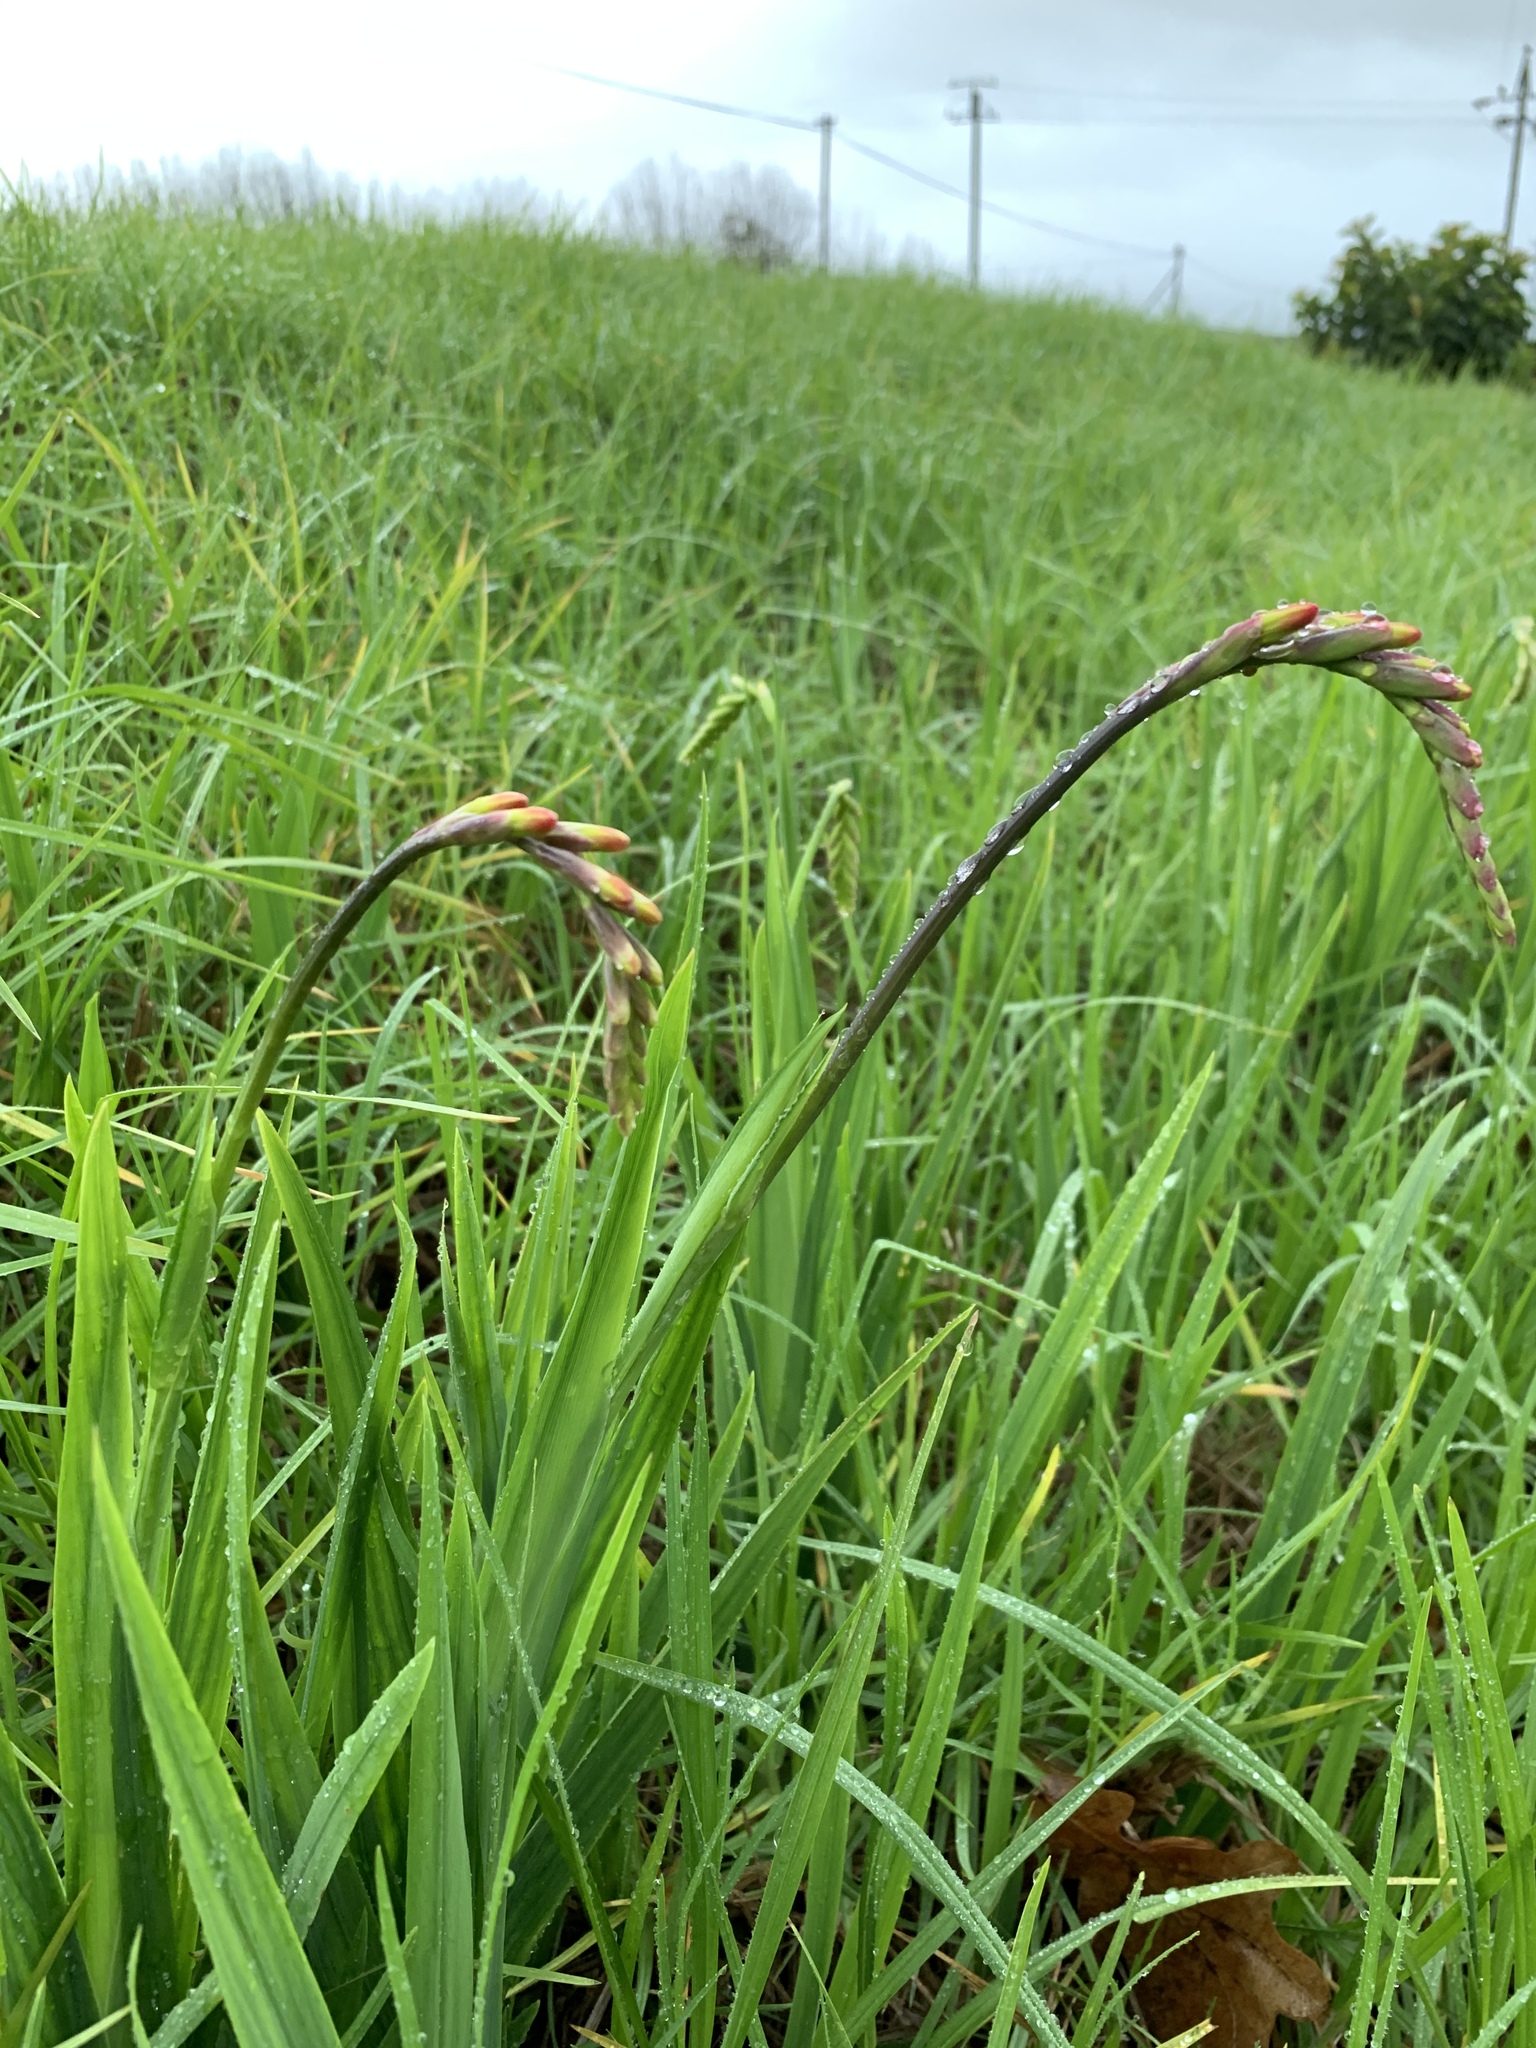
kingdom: Plantae
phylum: Tracheophyta
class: Liliopsida
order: Asparagales
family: Iridaceae
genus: Chasmanthe
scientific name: Chasmanthe aethiopica
